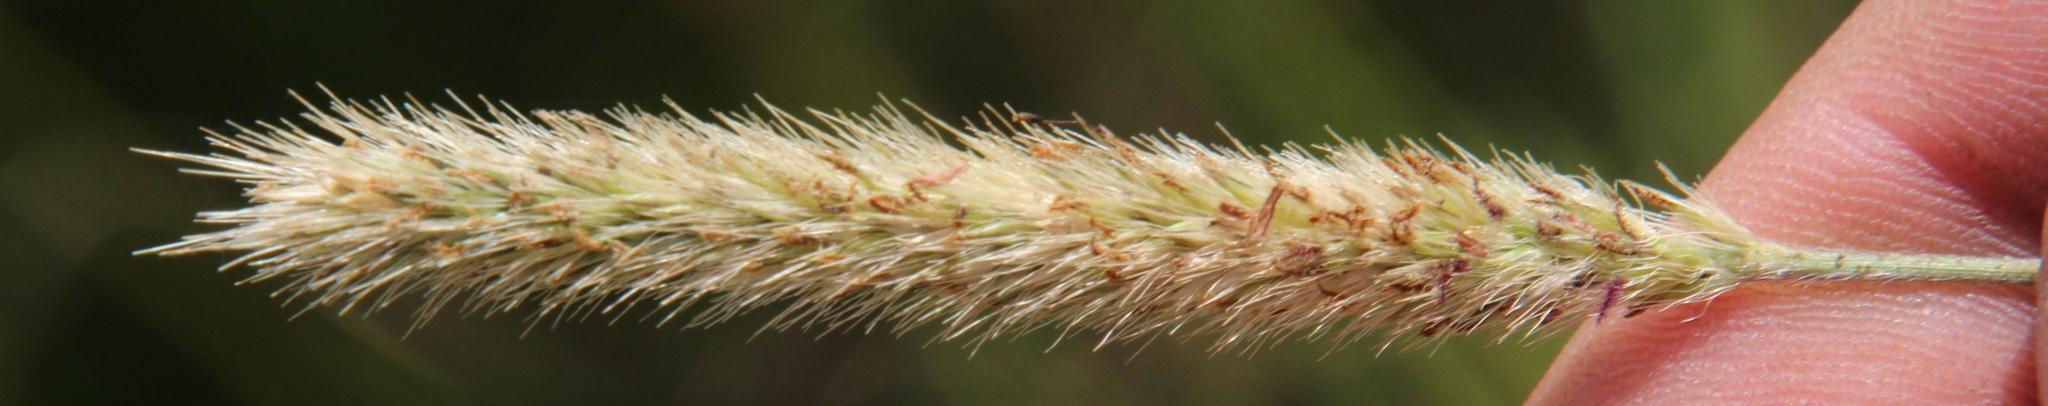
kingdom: Plantae
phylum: Tracheophyta
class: Liliopsida
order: Poales
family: Poaceae
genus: Setaria
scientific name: Setaria sphacelata
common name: African bristlegrass
